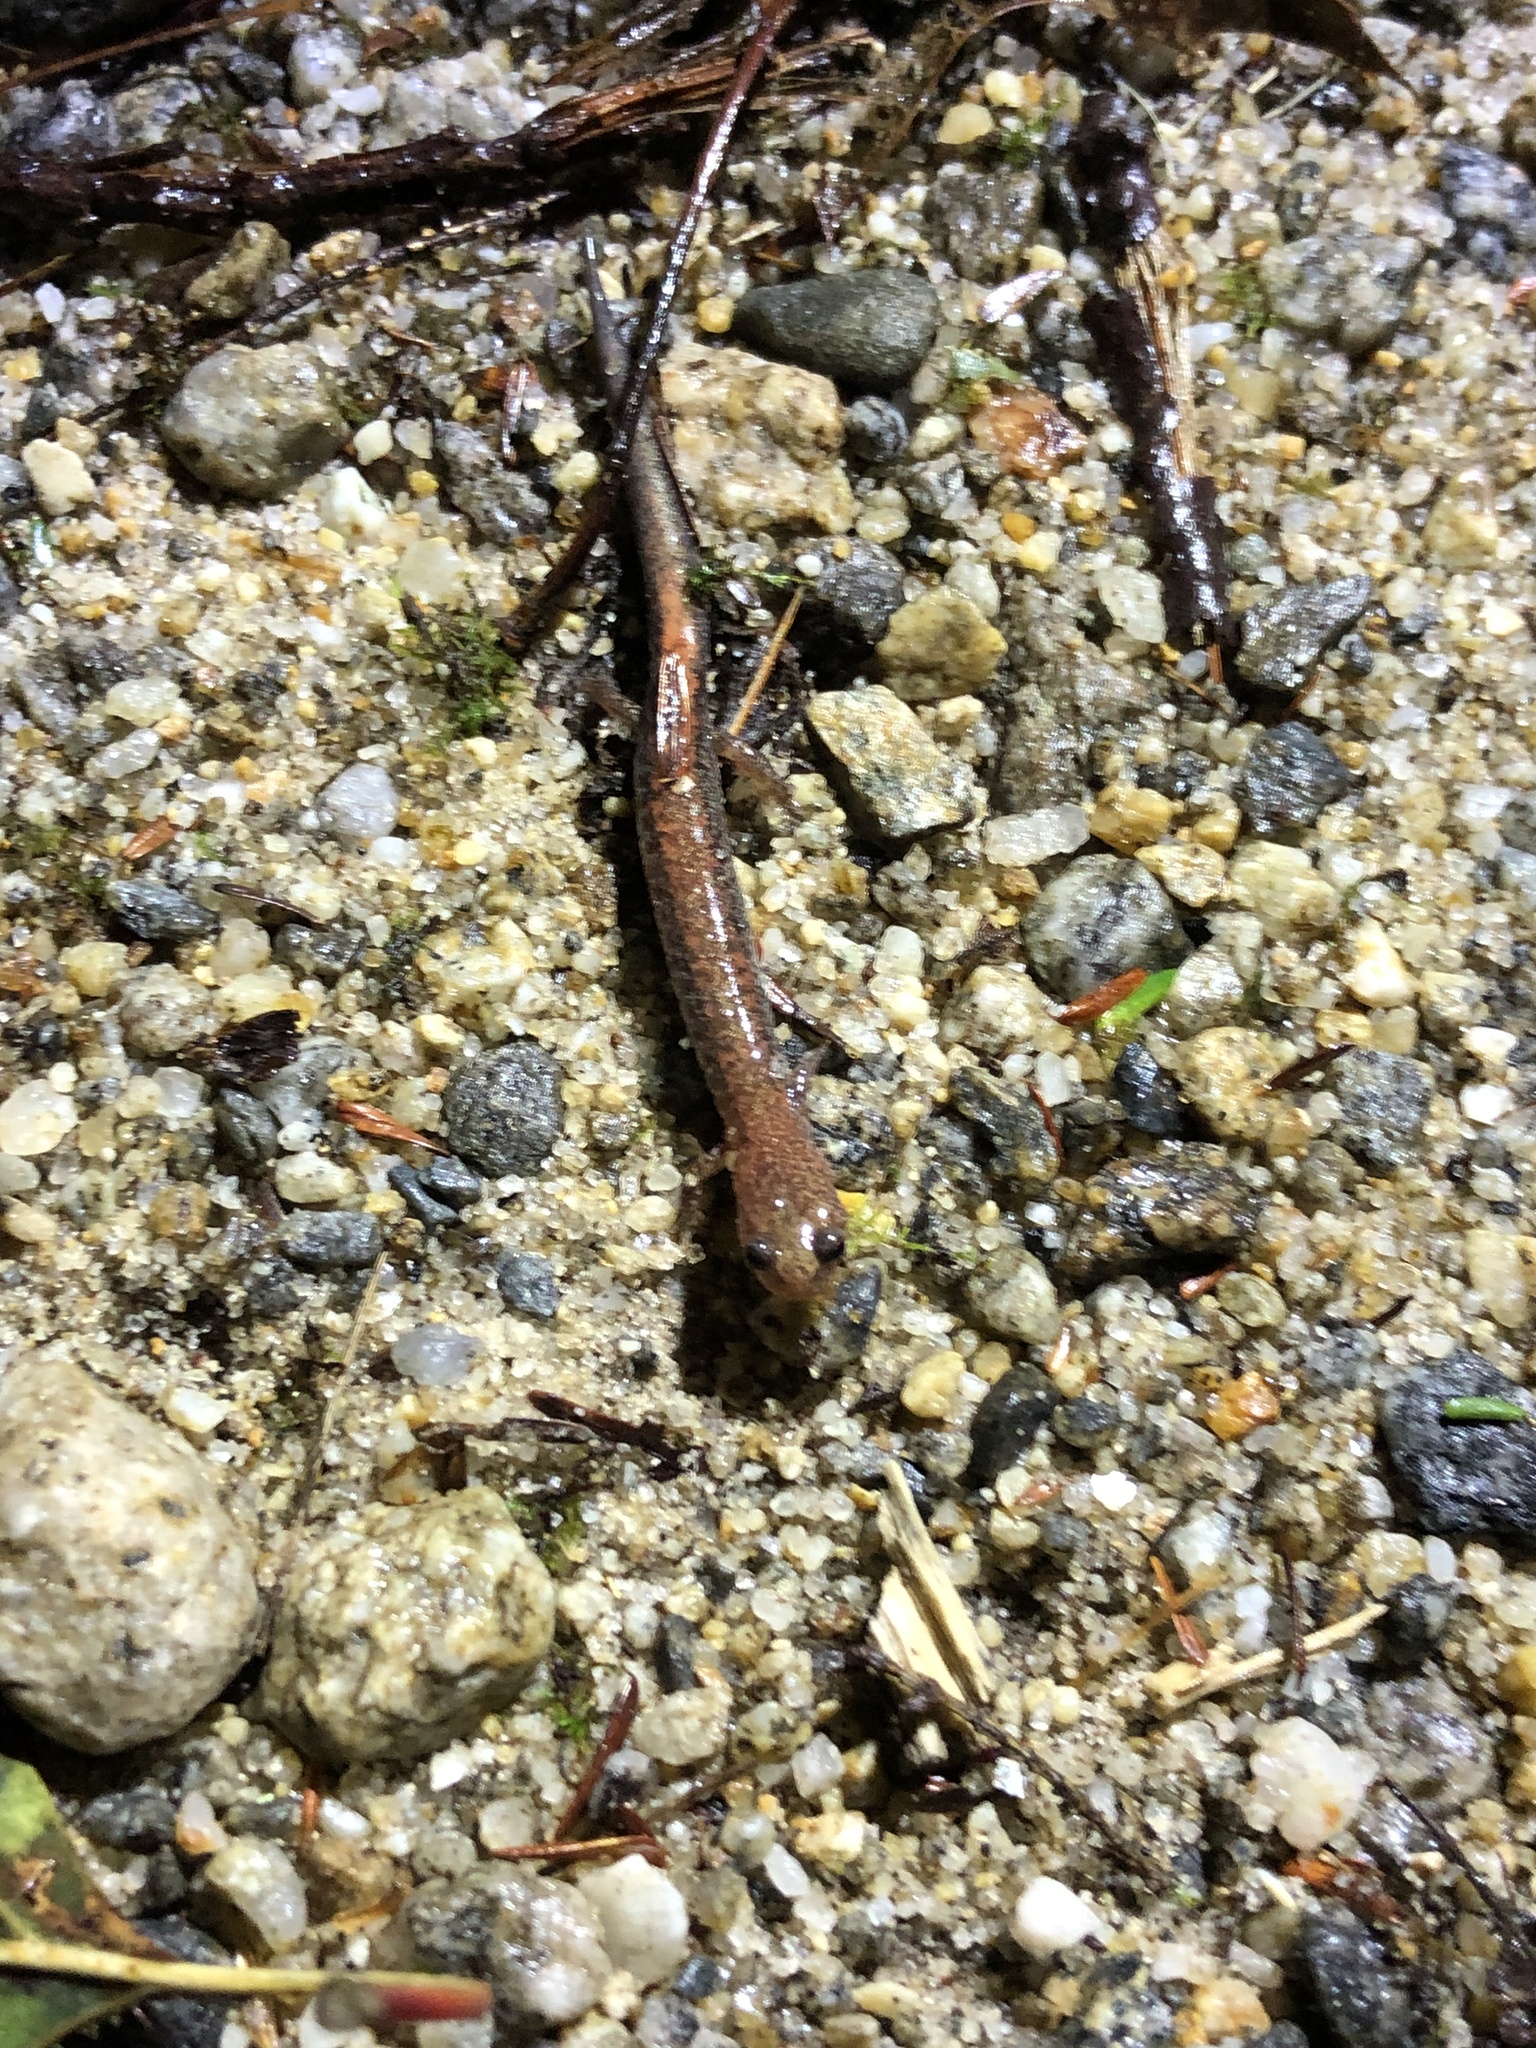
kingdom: Animalia
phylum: Chordata
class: Amphibia
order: Caudata
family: Plethodontidae
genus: Plethodon
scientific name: Plethodon cinereus
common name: Redback salamander
